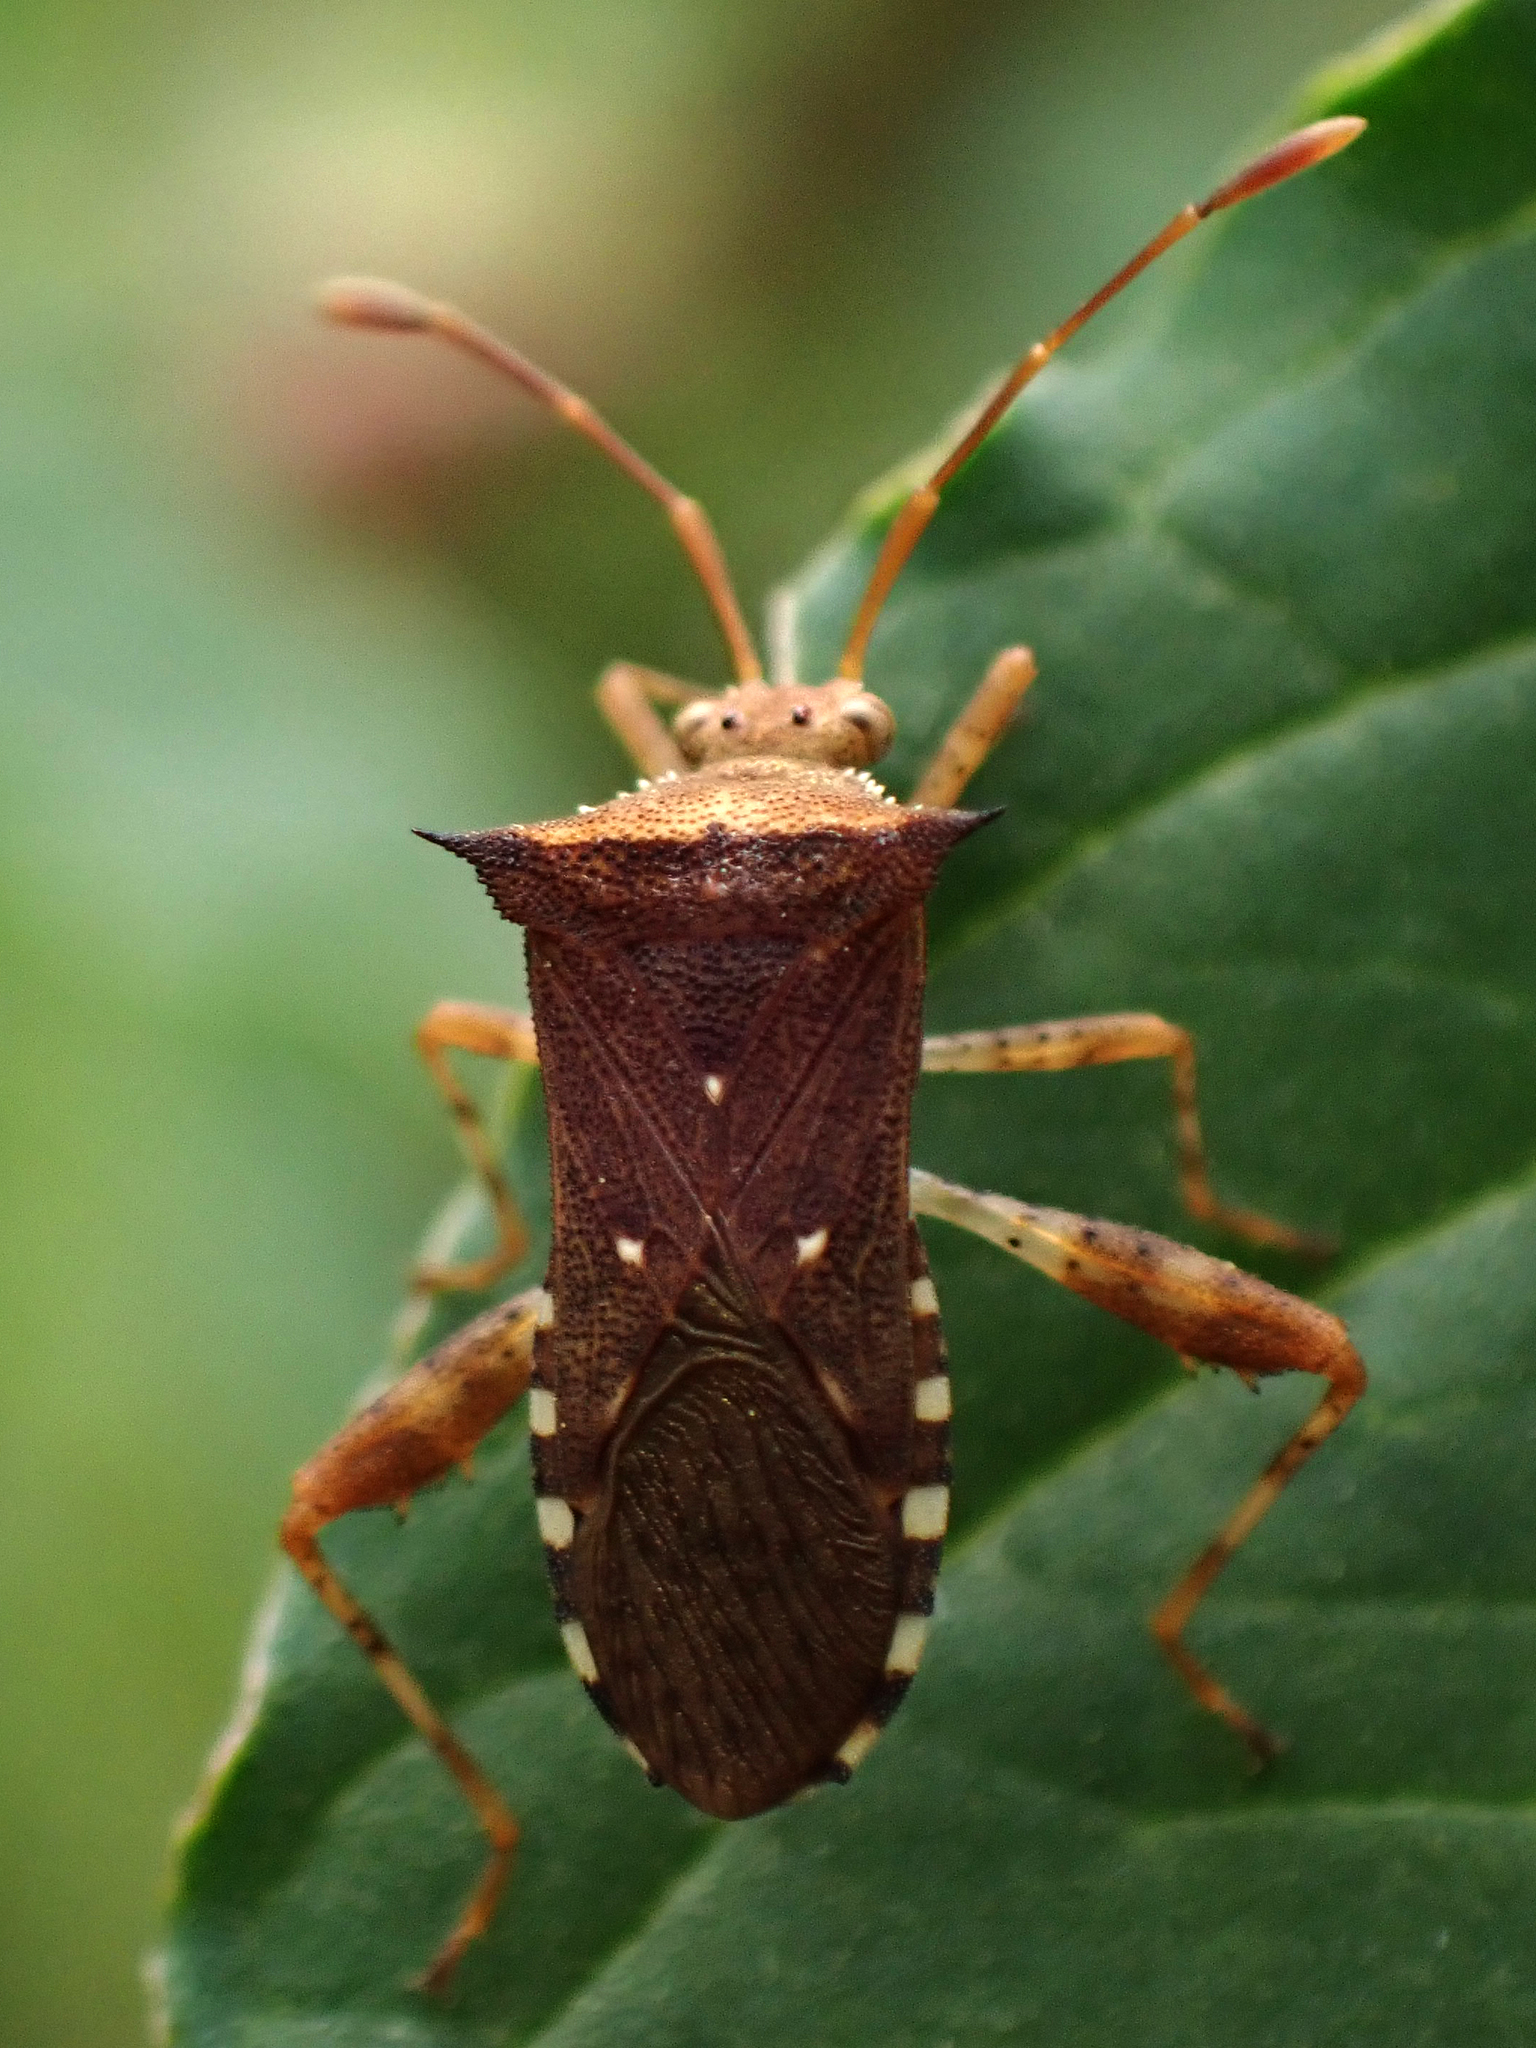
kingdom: Animalia
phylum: Arthropoda
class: Insecta
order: Hemiptera
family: Coreidae
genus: Zicca
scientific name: Zicca taeniola
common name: Leaf-footed bug
